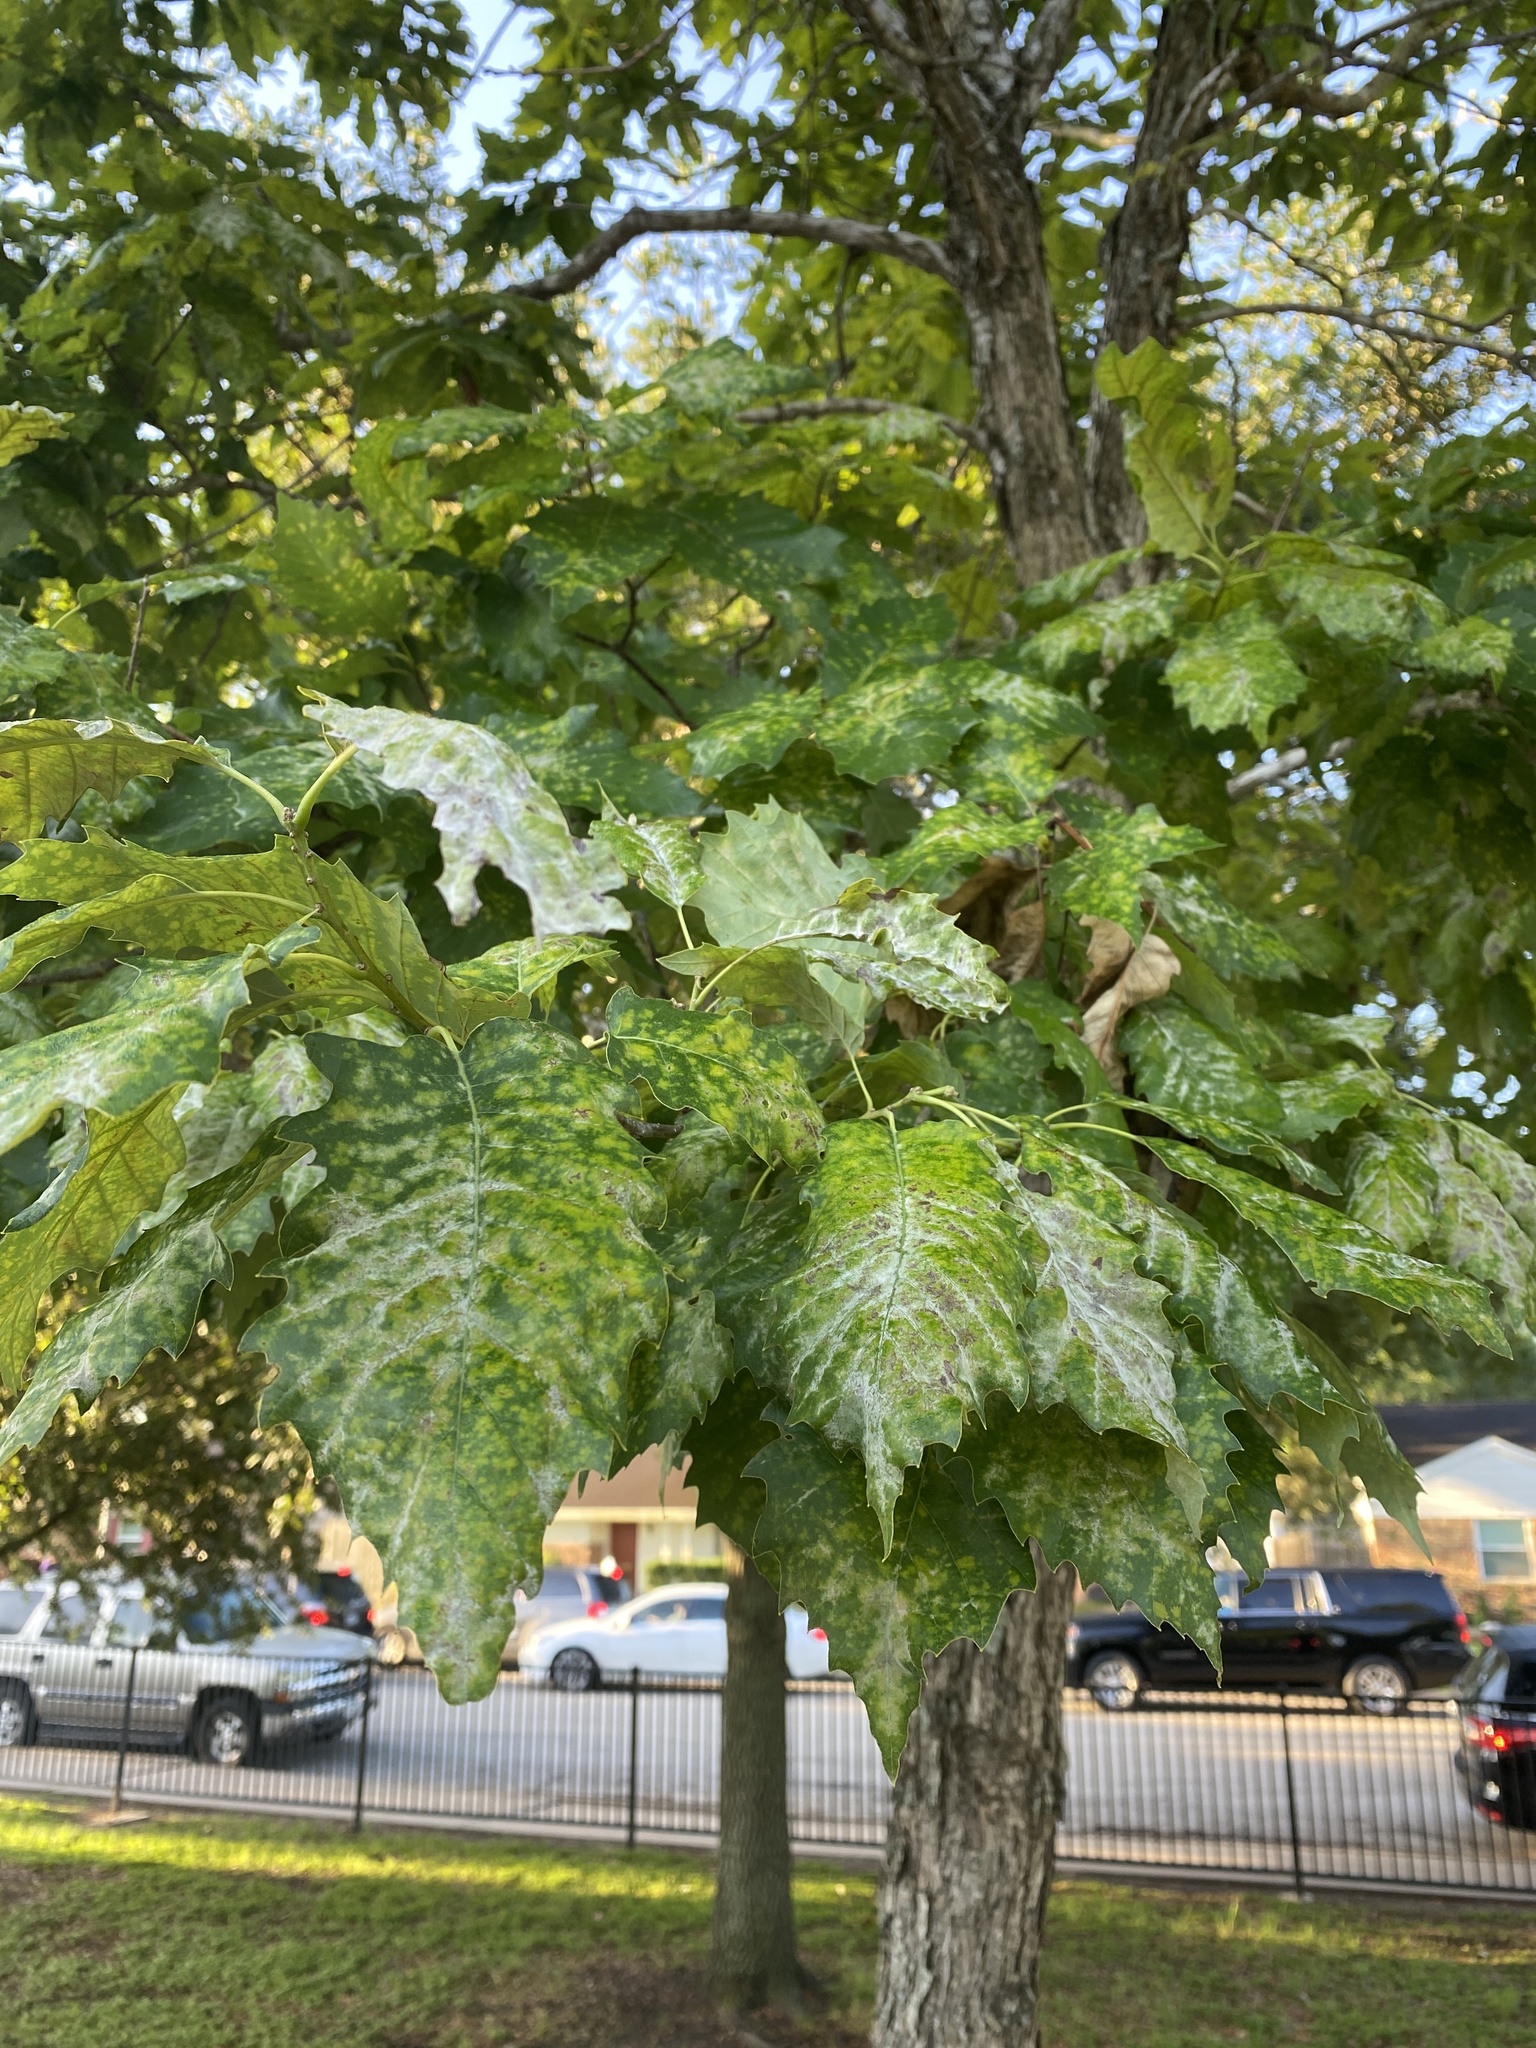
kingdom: Plantae
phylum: Tracheophyta
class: Magnoliopsida
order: Fagales
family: Fagaceae
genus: Quercus
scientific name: Quercus muehlenbergii
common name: Chinkapin oak
